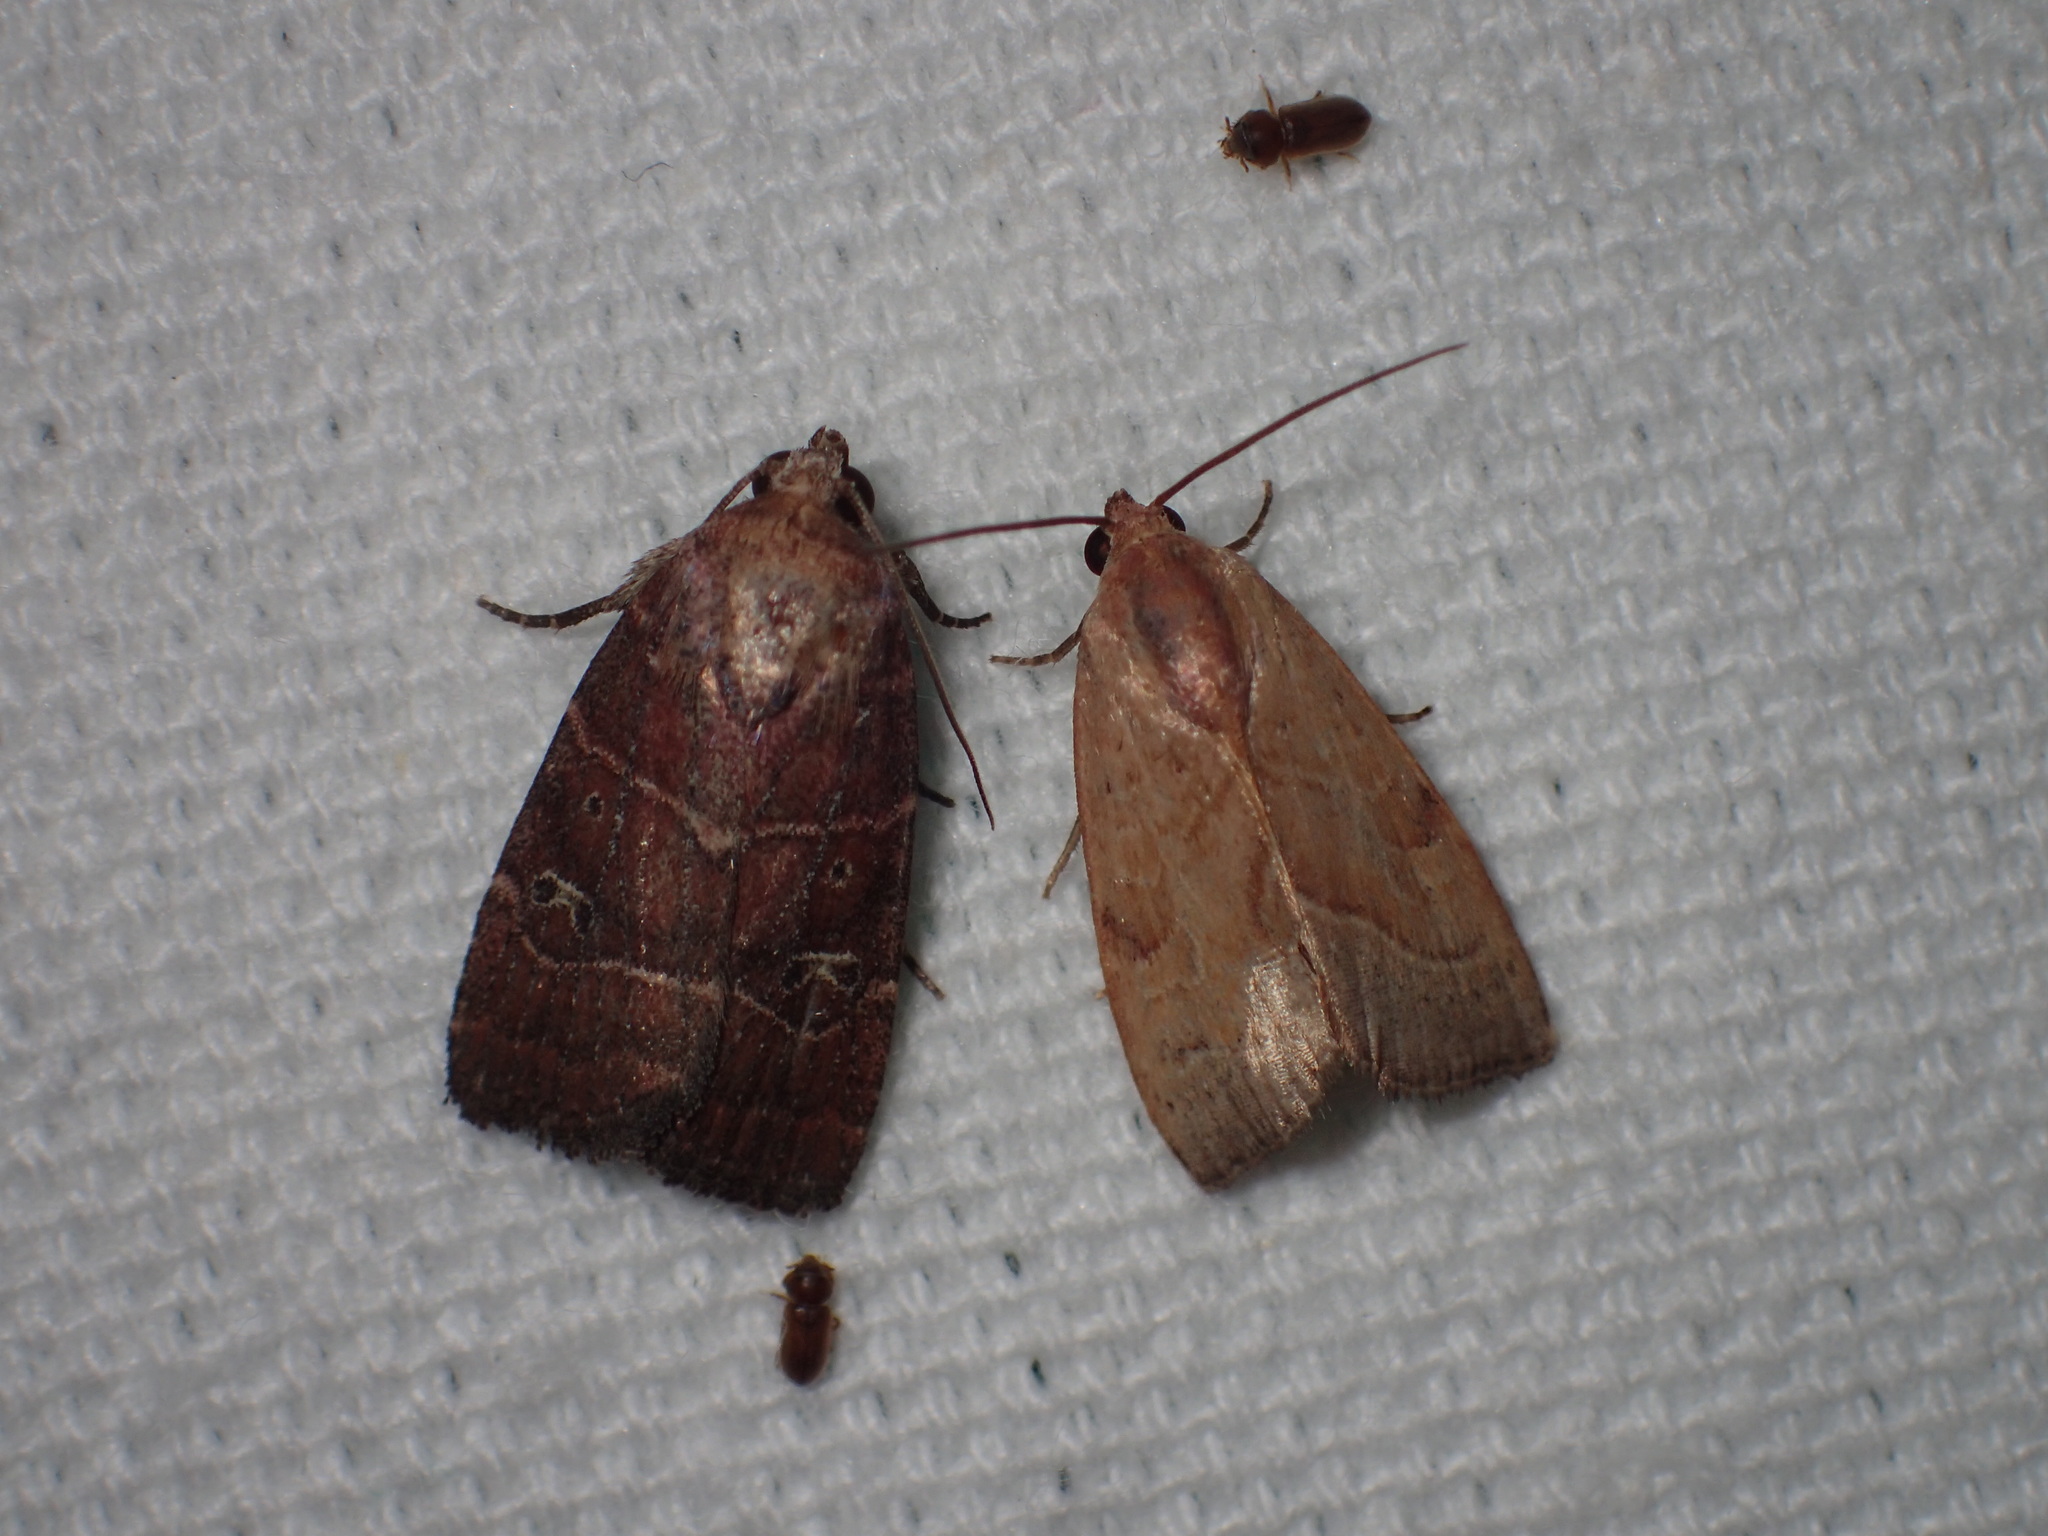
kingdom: Animalia
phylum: Arthropoda
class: Insecta
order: Lepidoptera
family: Noctuidae
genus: Galgula
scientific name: Galgula partita
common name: Wedgeling
